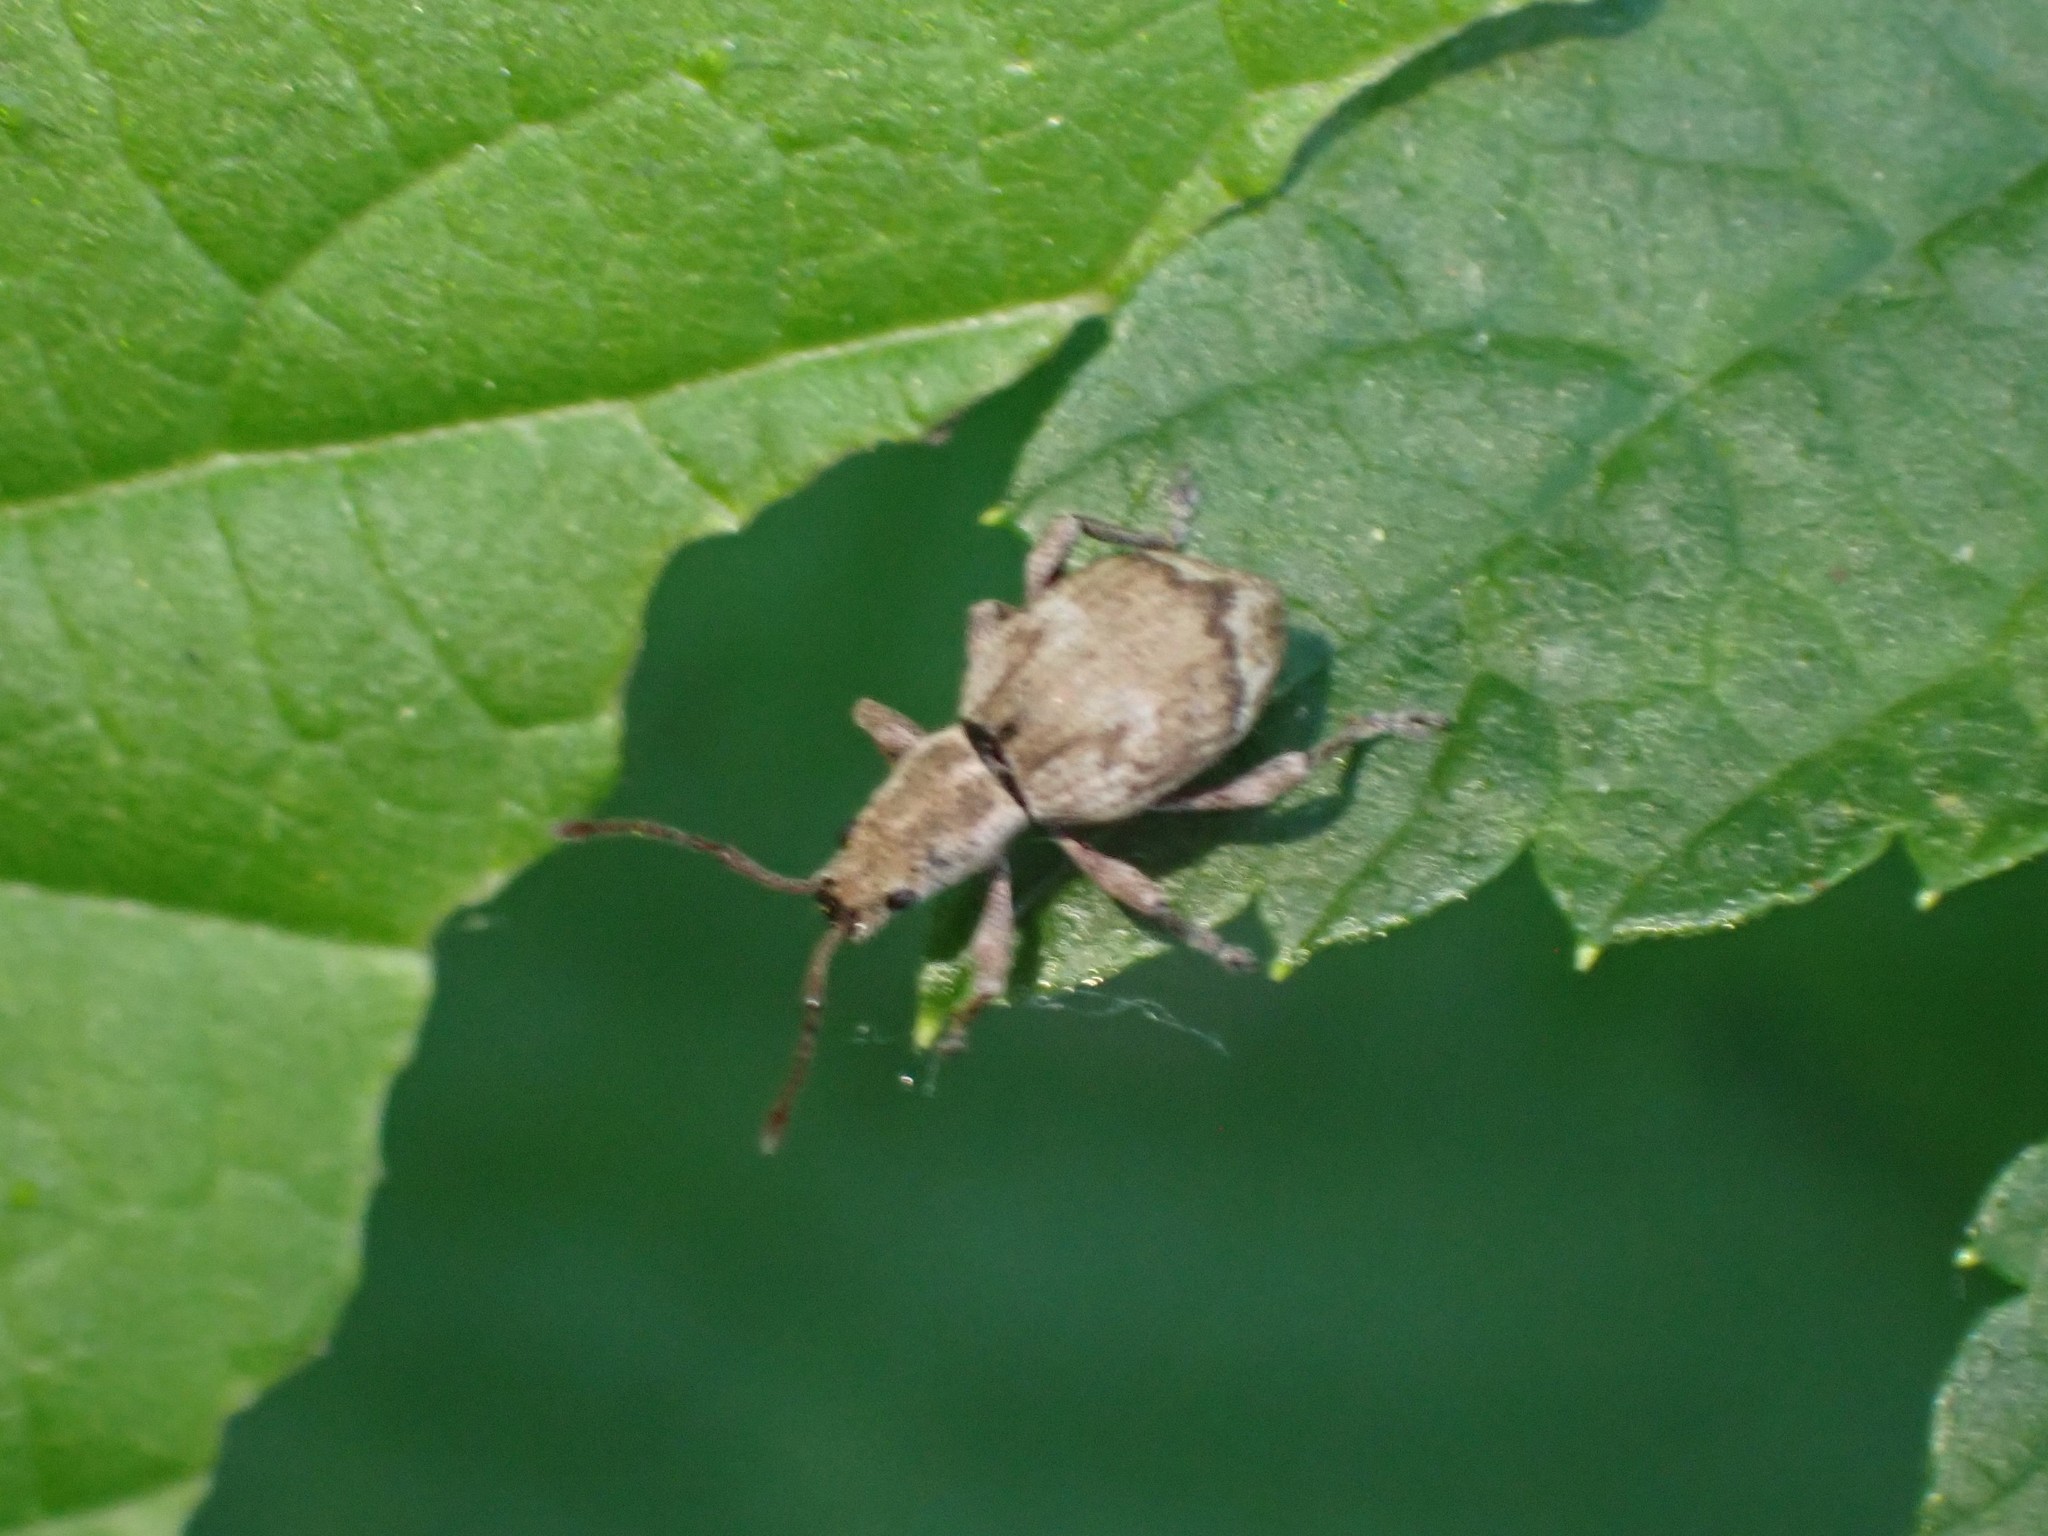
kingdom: Animalia
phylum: Arthropoda
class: Insecta
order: Coleoptera
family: Curculionidae
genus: Sciopithes
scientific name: Sciopithes obscurus
